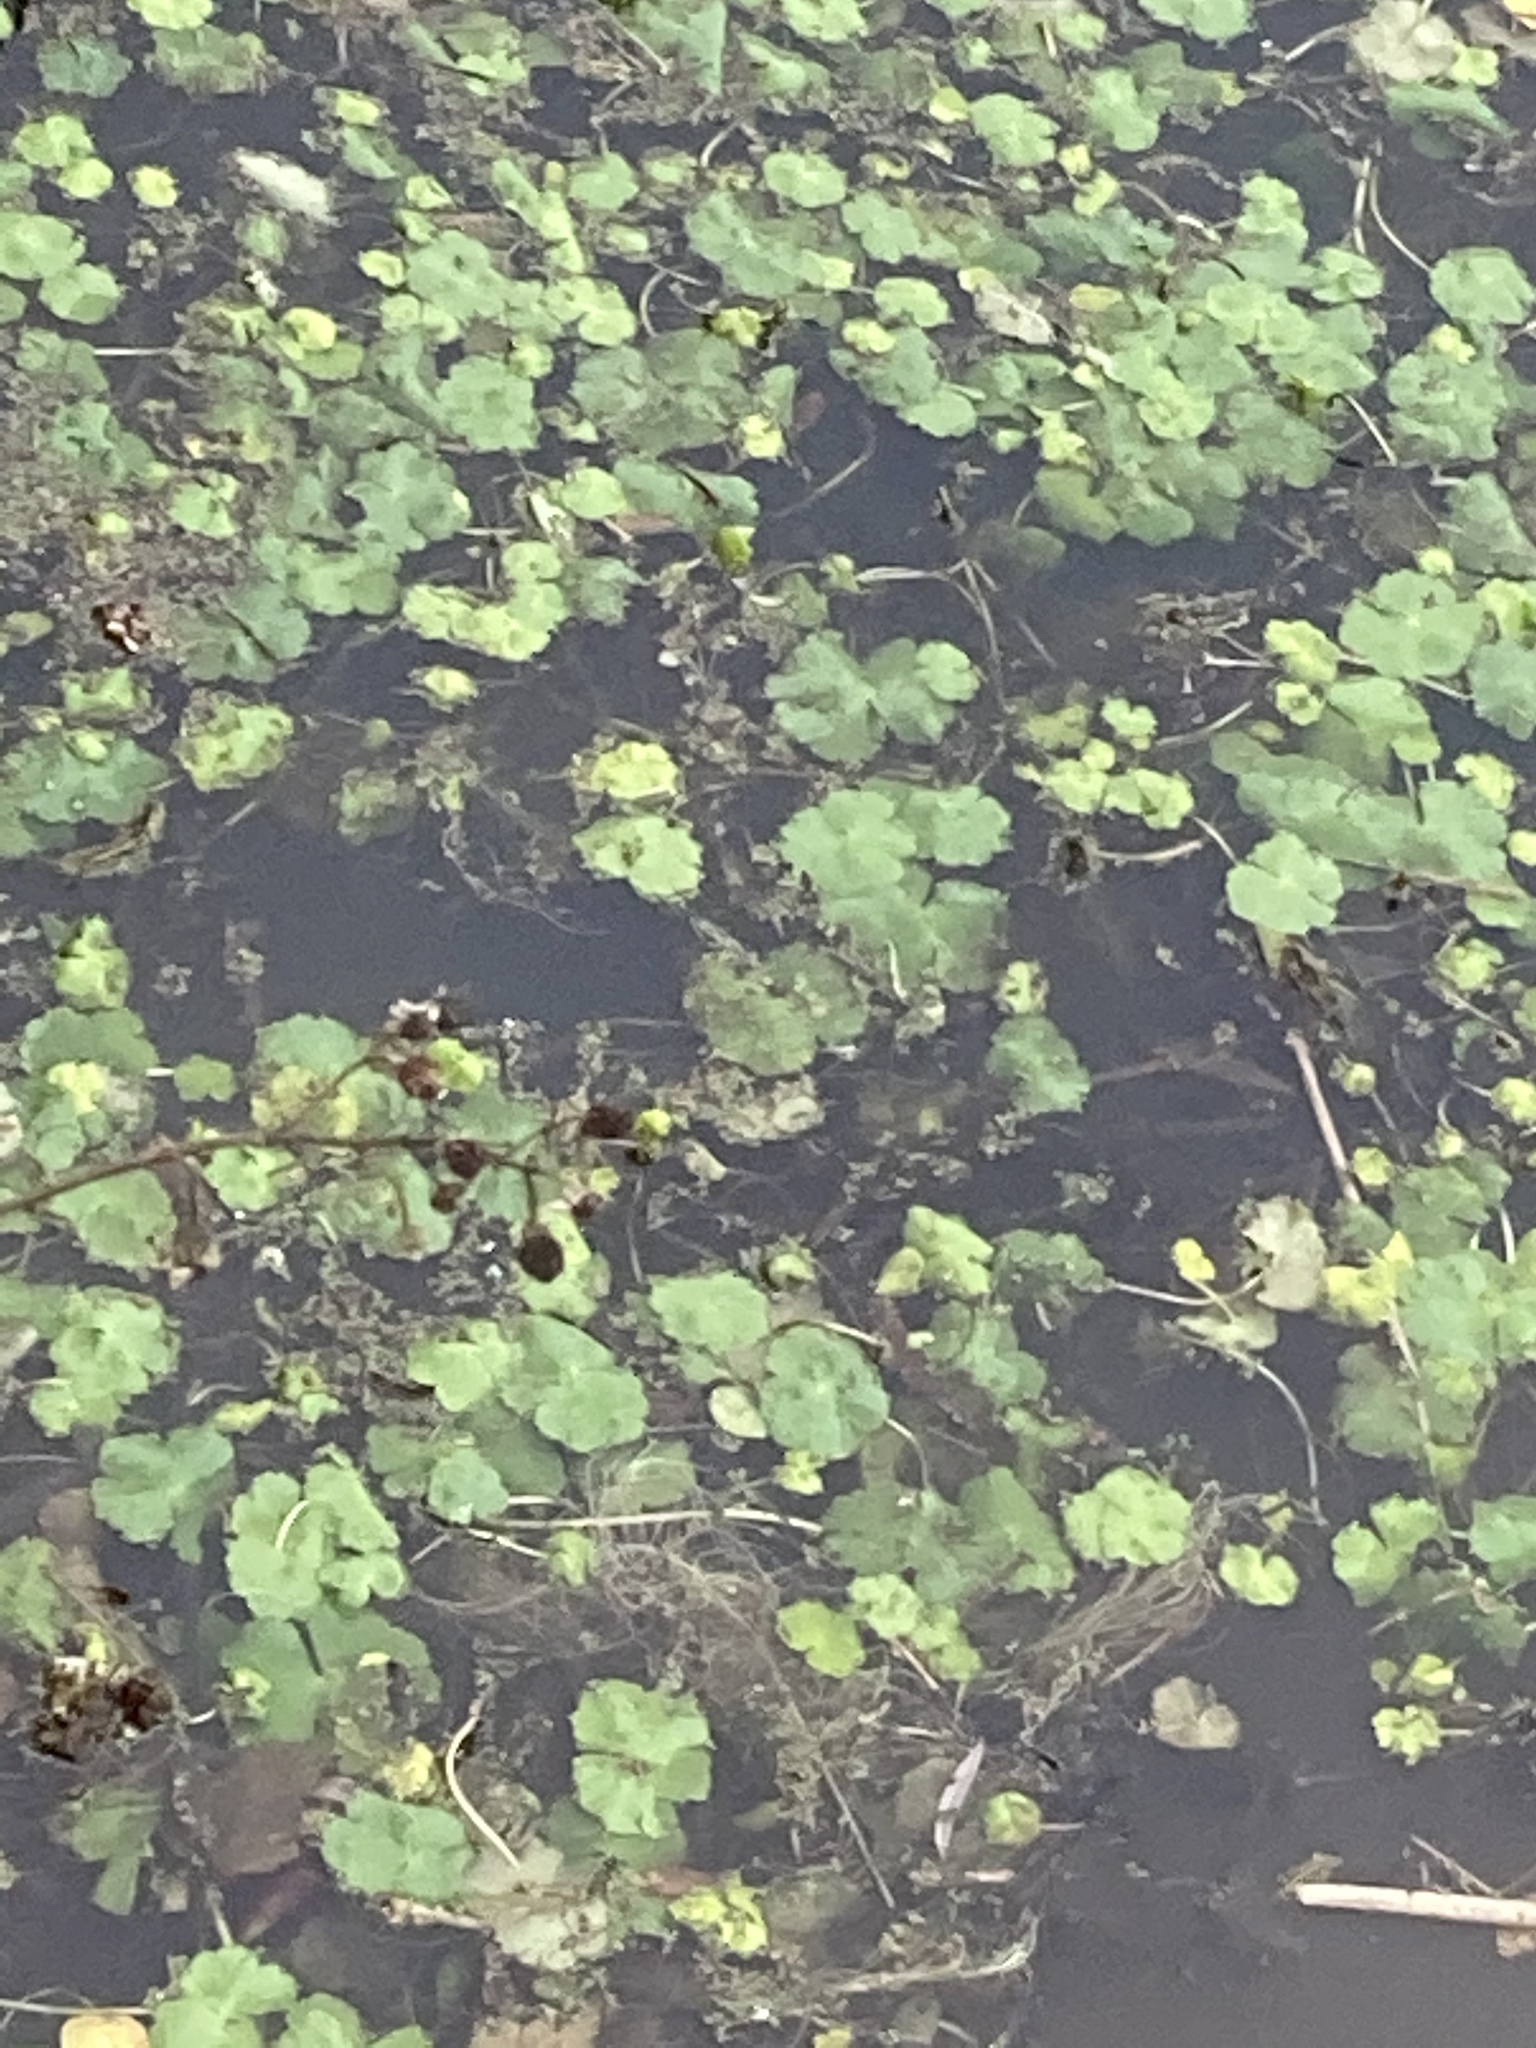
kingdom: Plantae
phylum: Tracheophyta
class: Magnoliopsida
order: Apiales
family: Araliaceae
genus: Hydrocotyle
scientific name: Hydrocotyle ranunculoides
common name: Floating pennywort
